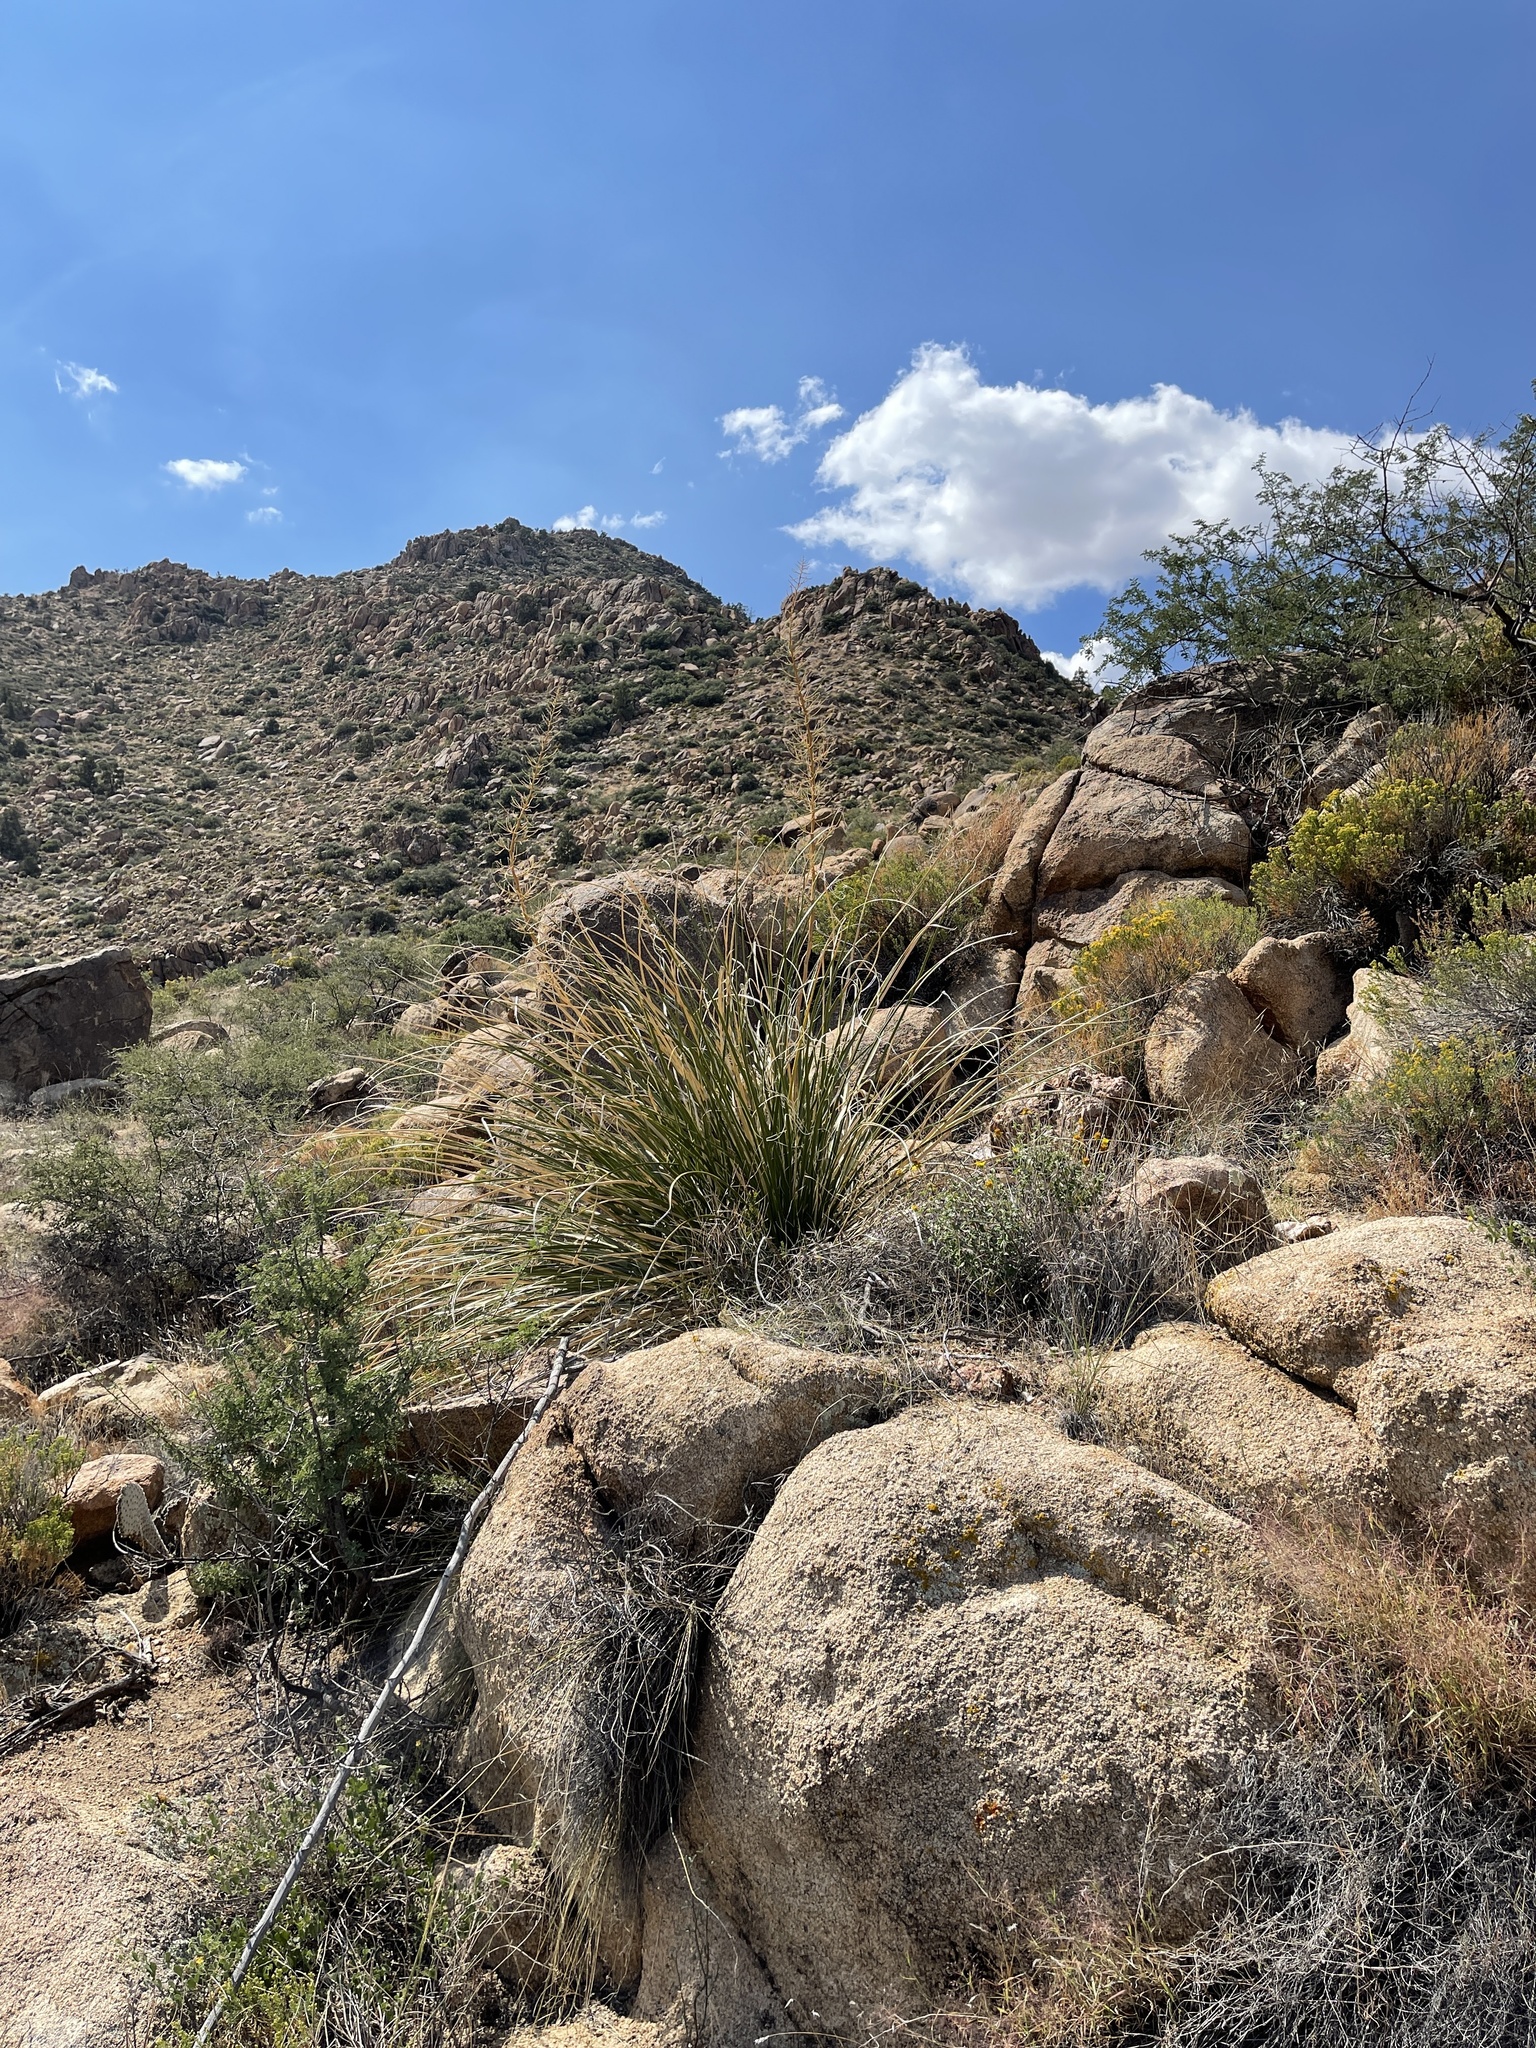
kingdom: Plantae
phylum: Tracheophyta
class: Liliopsida
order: Asparagales
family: Asparagaceae
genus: Nolina
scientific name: Nolina microcarpa
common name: Bear-grass
